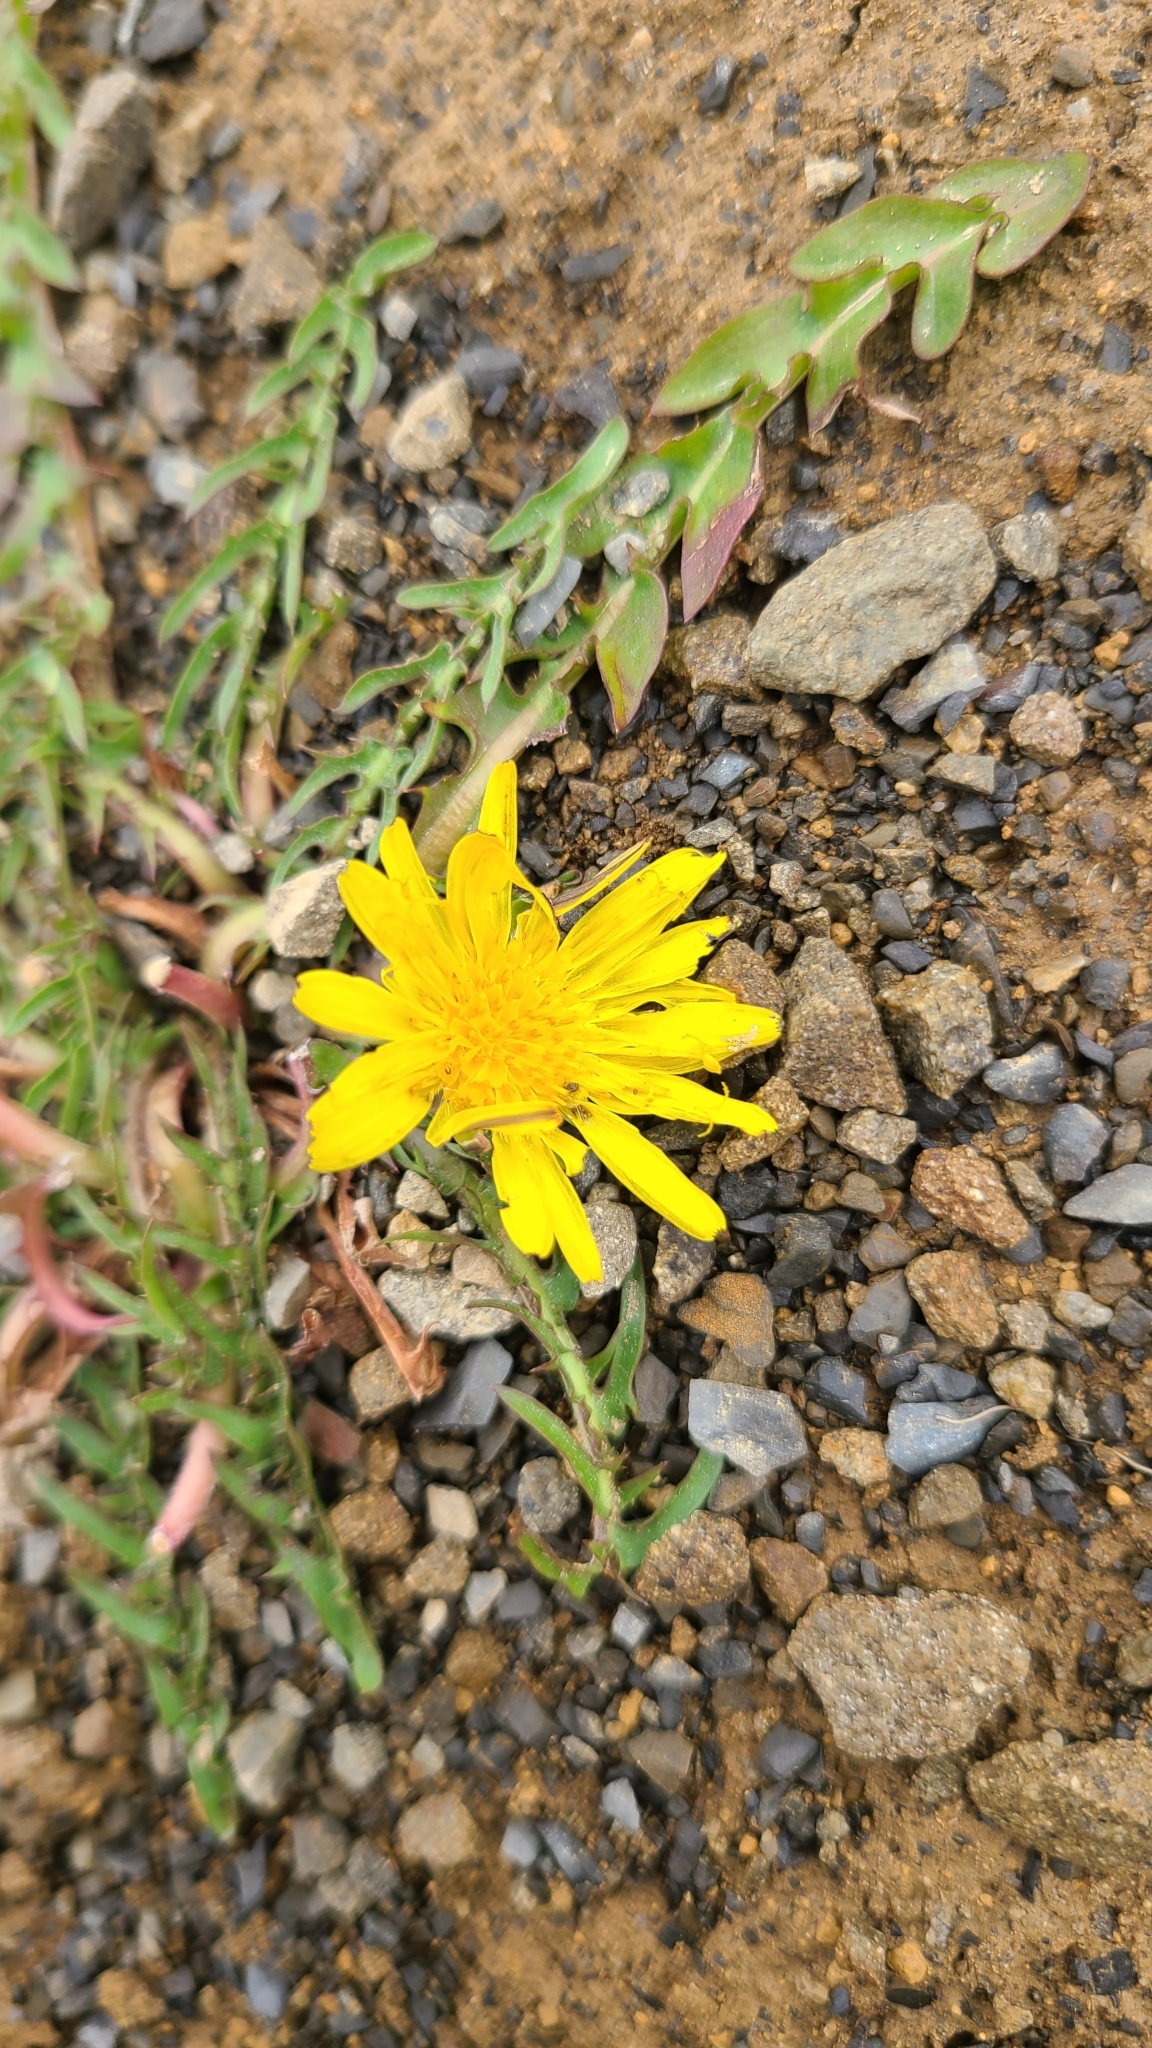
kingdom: Plantae
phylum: Tracheophyta
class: Magnoliopsida
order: Asterales
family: Asteraceae
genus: Taraxacum
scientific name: Taraxacum officinale
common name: Common dandelion
